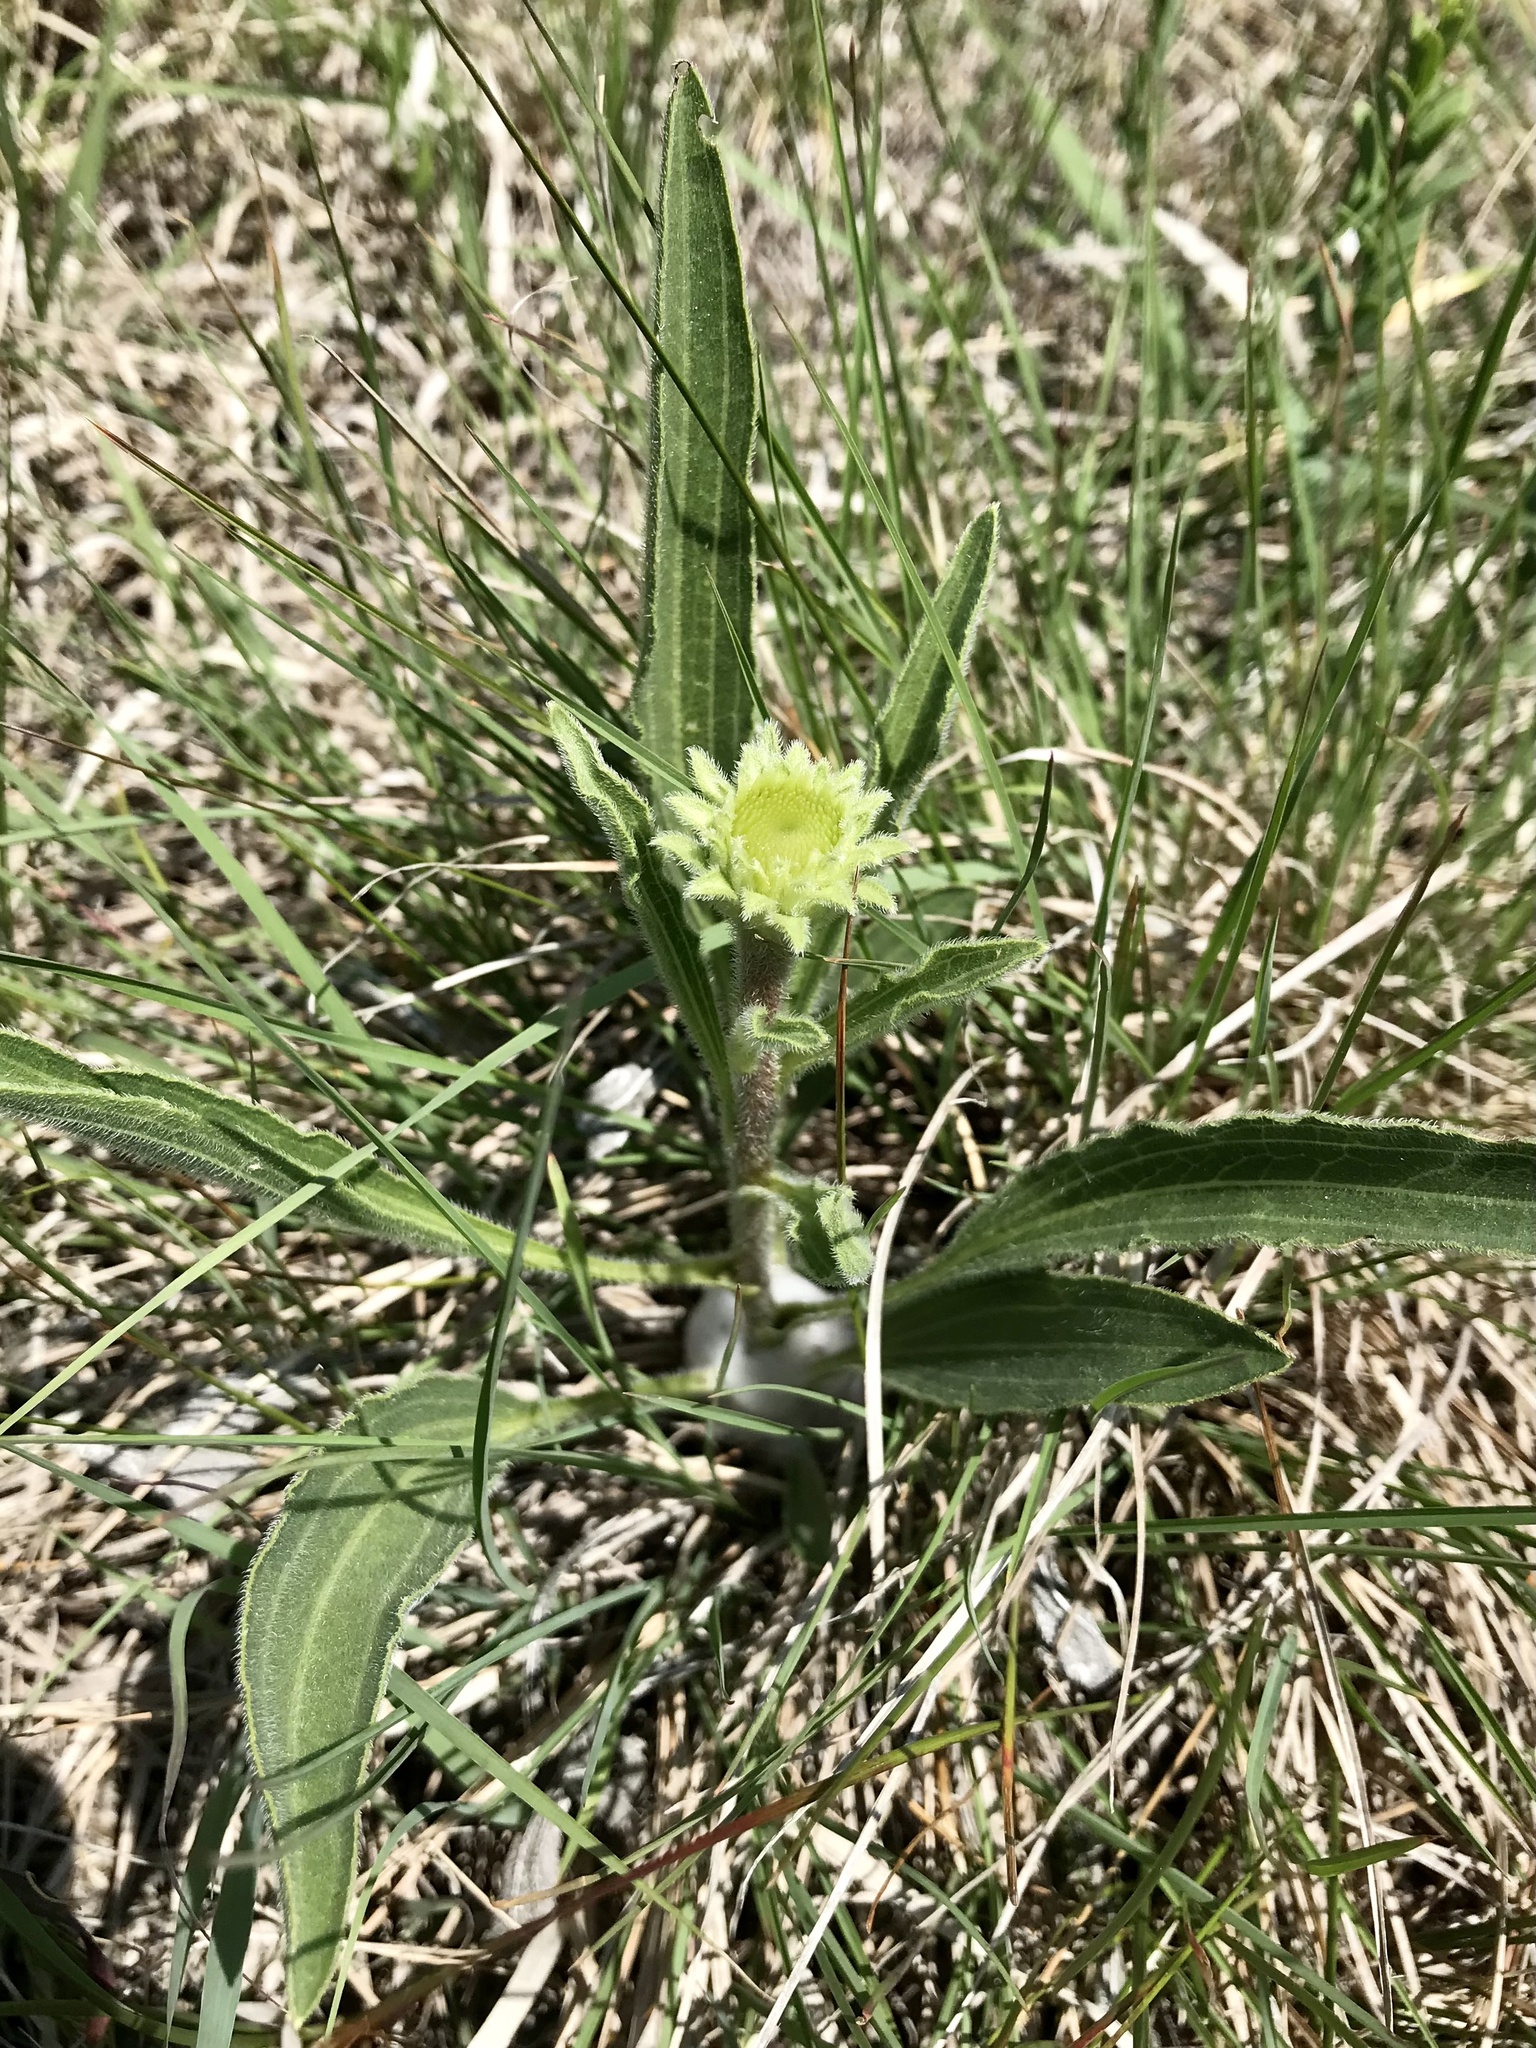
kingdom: Plantae
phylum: Tracheophyta
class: Magnoliopsida
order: Asterales
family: Asteraceae
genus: Echinacea
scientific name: Echinacea angustifolia
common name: Black-sampson echinacea
